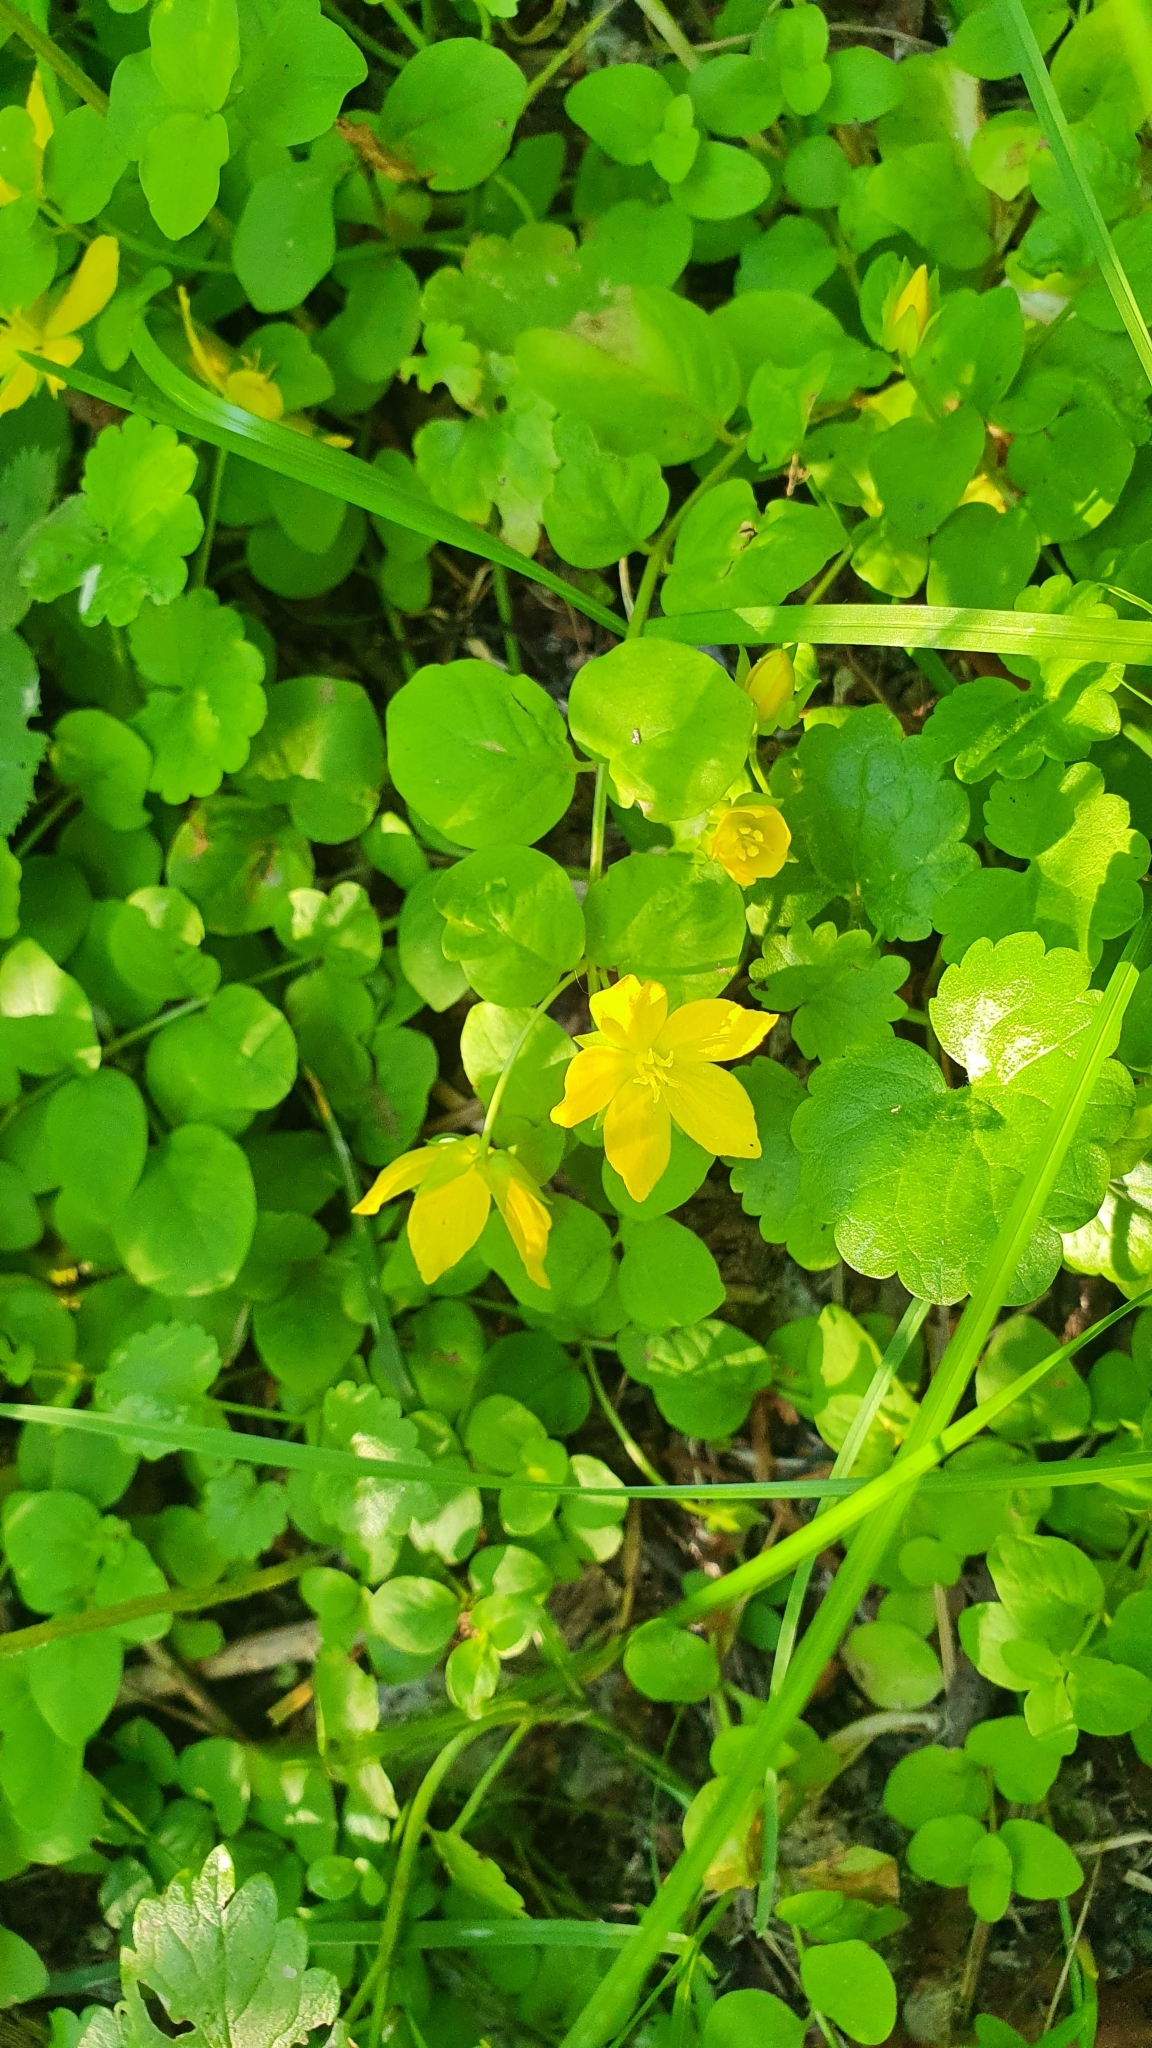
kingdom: Plantae
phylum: Tracheophyta
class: Magnoliopsida
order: Ericales
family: Primulaceae
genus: Lysimachia
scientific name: Lysimachia nummularia
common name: Moneywort
